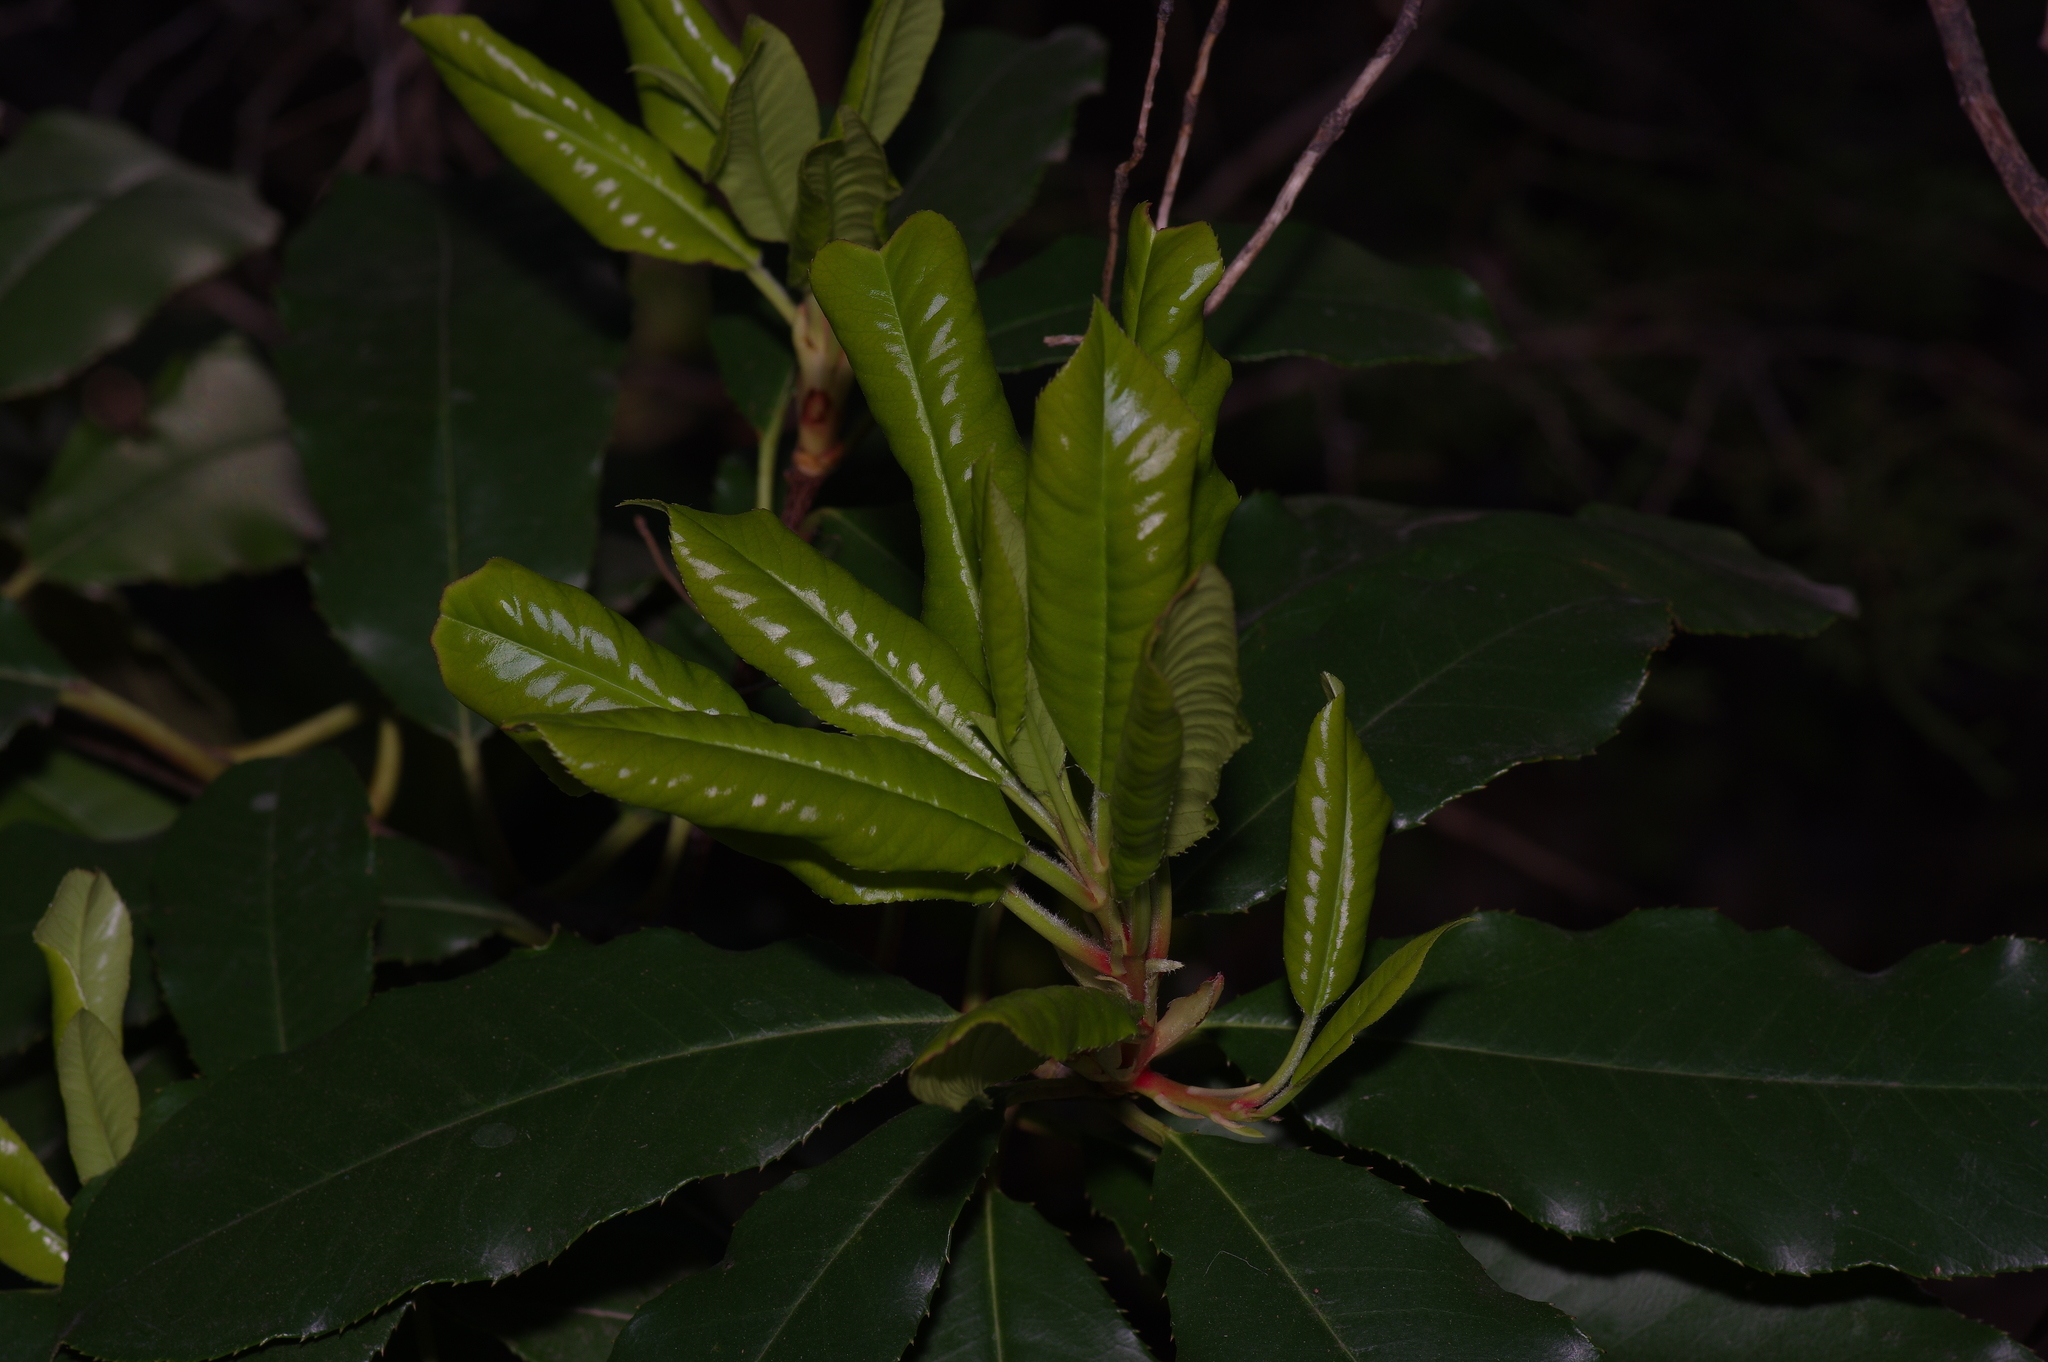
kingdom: Plantae
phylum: Tracheophyta
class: Magnoliopsida
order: Rosales
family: Rosaceae
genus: Photinia
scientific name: Photinia serratifolia
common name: Taiwanese photinia
